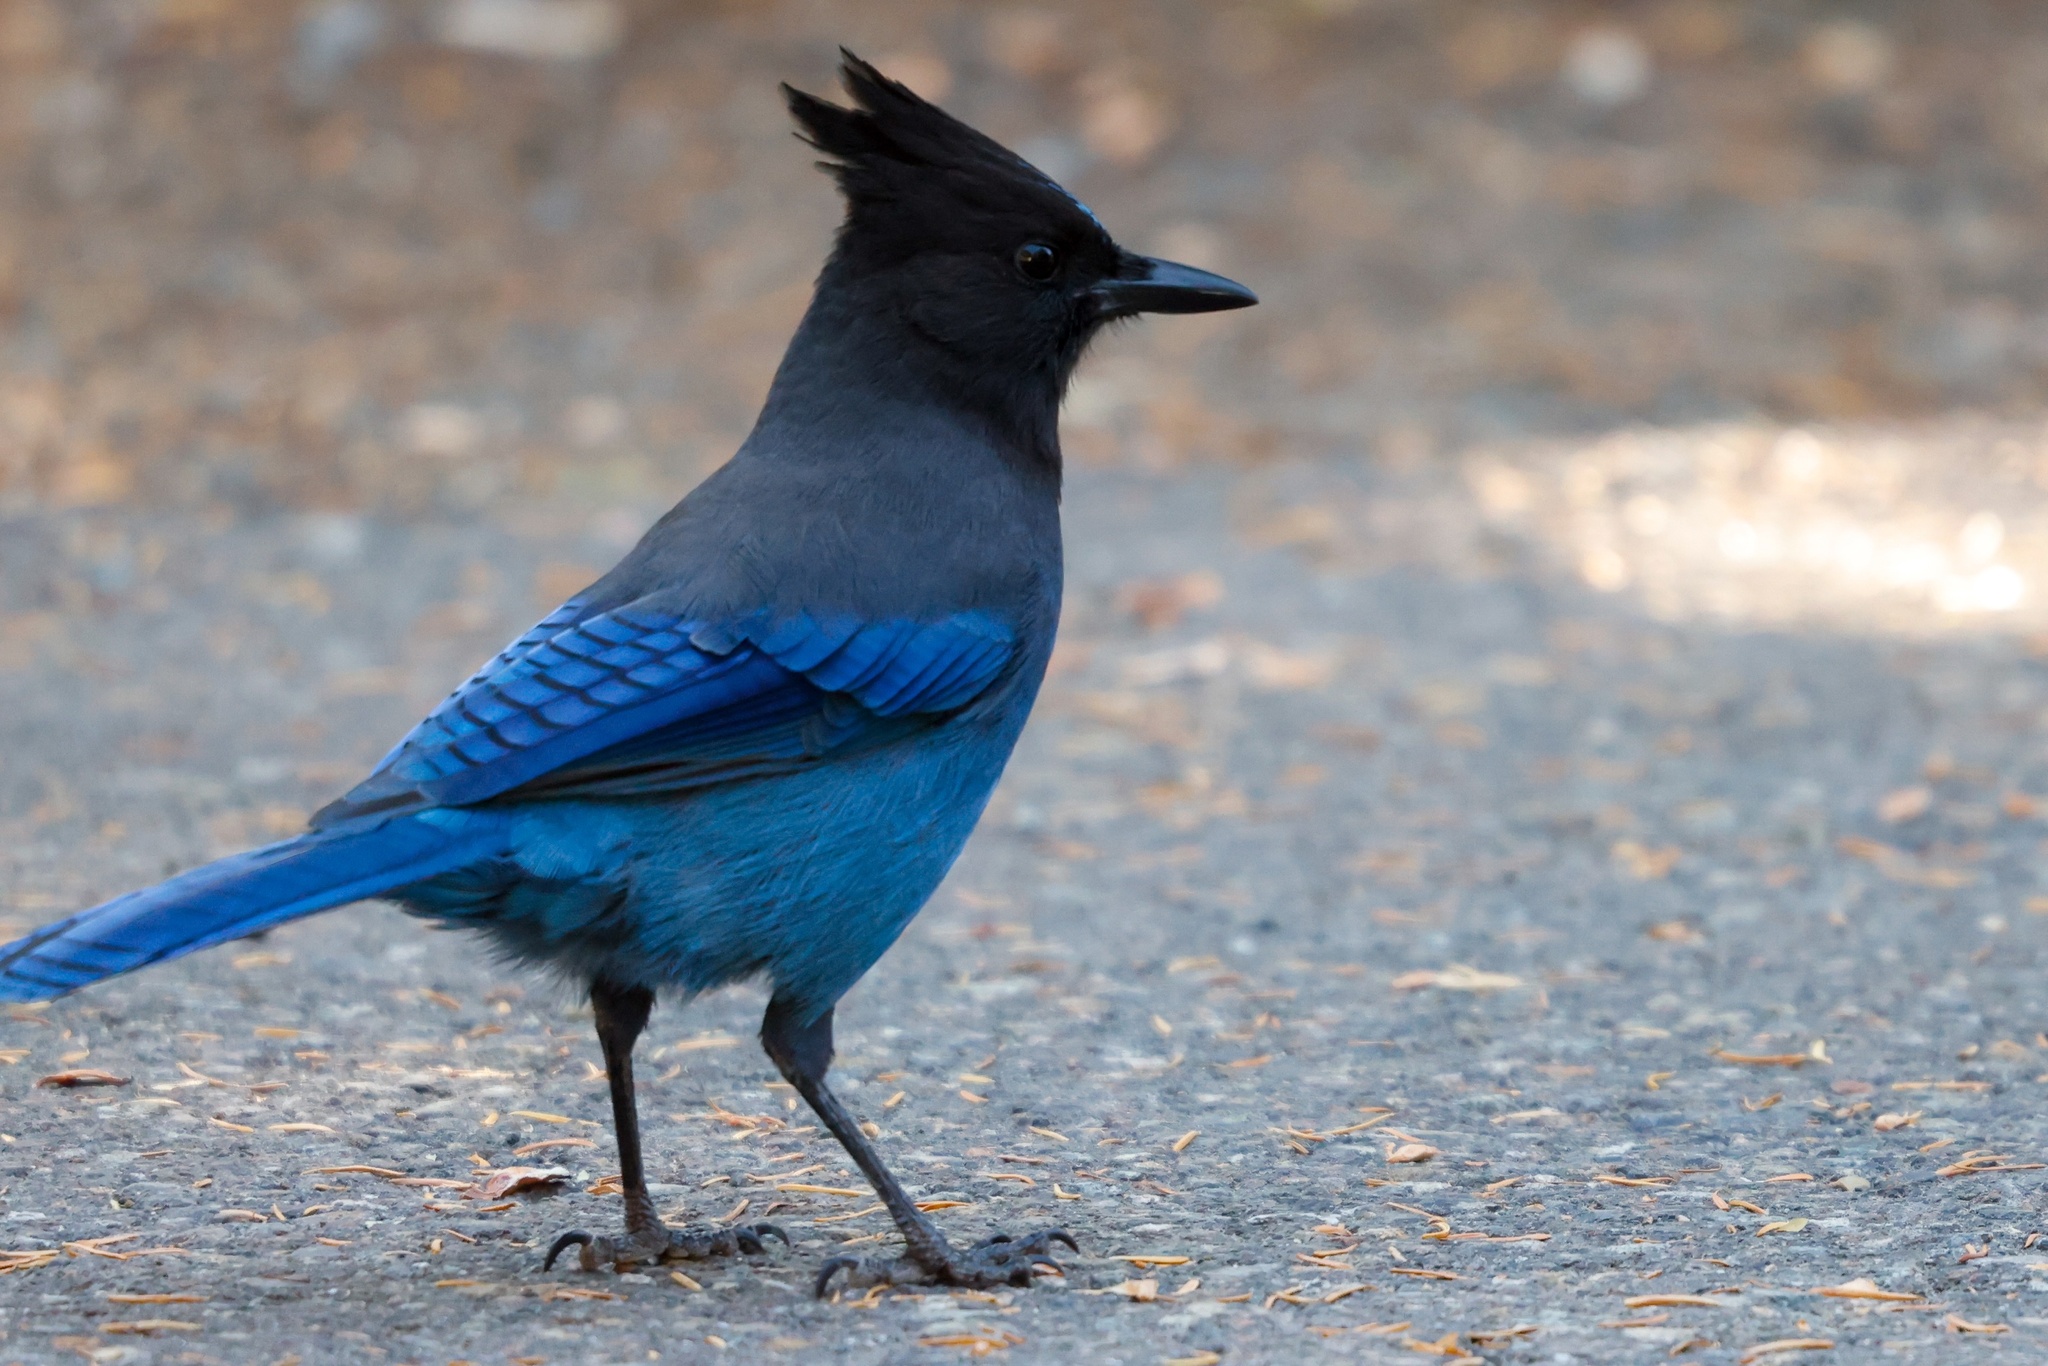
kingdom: Animalia
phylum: Chordata
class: Aves
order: Passeriformes
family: Corvidae
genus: Cyanocitta
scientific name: Cyanocitta stelleri
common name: Steller's jay
